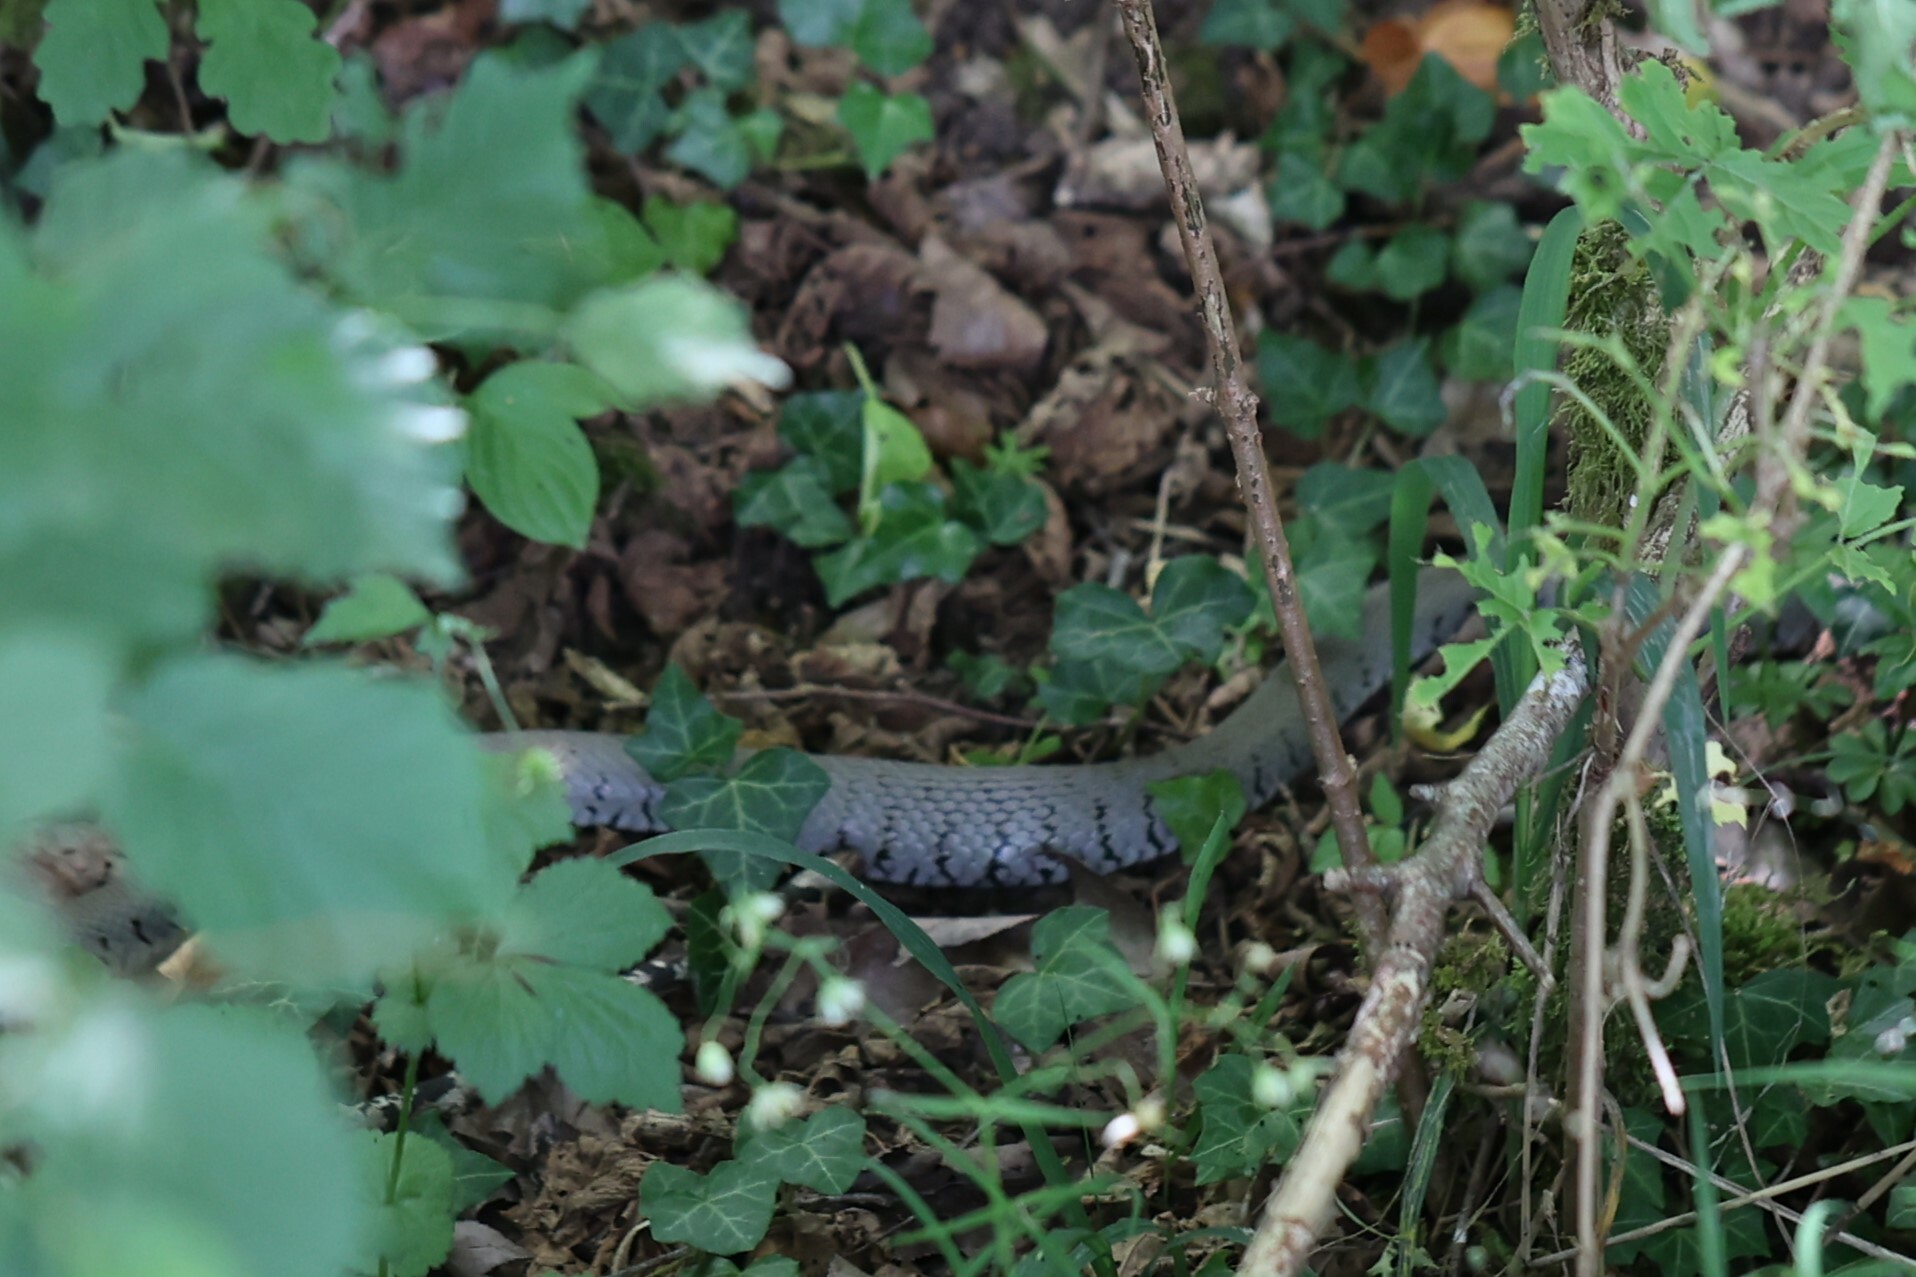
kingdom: Animalia
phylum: Chordata
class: Squamata
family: Colubridae
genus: Natrix
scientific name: Natrix helvetica
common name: Banded grass snake
